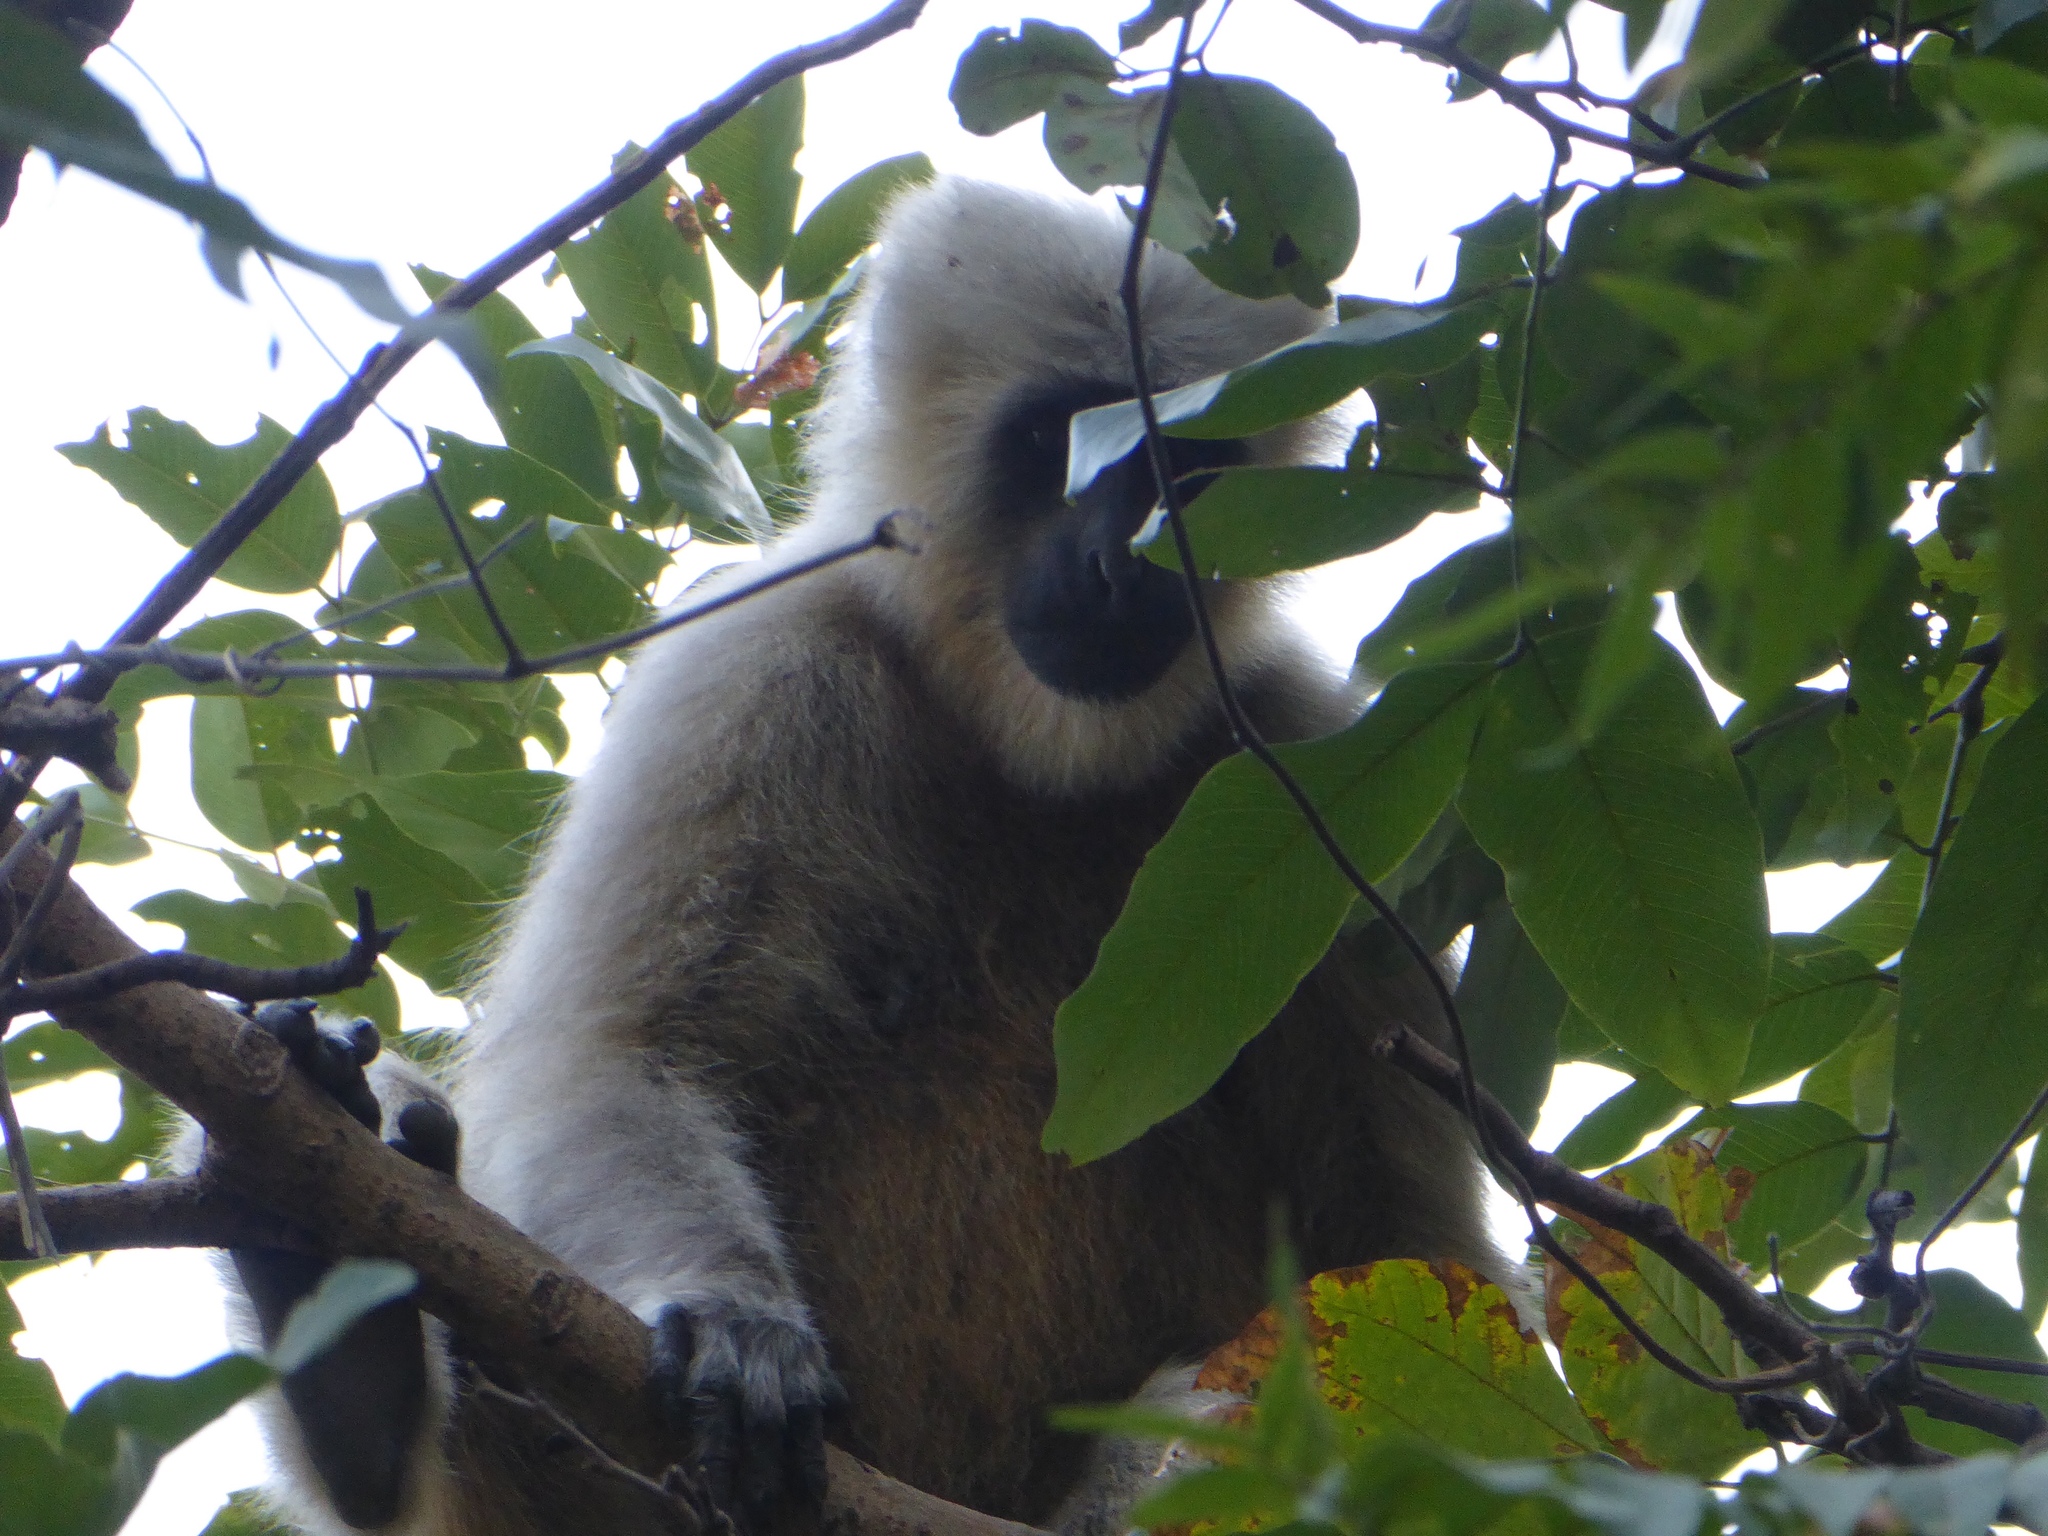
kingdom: Animalia
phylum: Chordata
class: Mammalia
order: Primates
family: Cercopithecidae
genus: Semnopithecus
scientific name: Semnopithecus schistaceus
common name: Nepal gray langur
